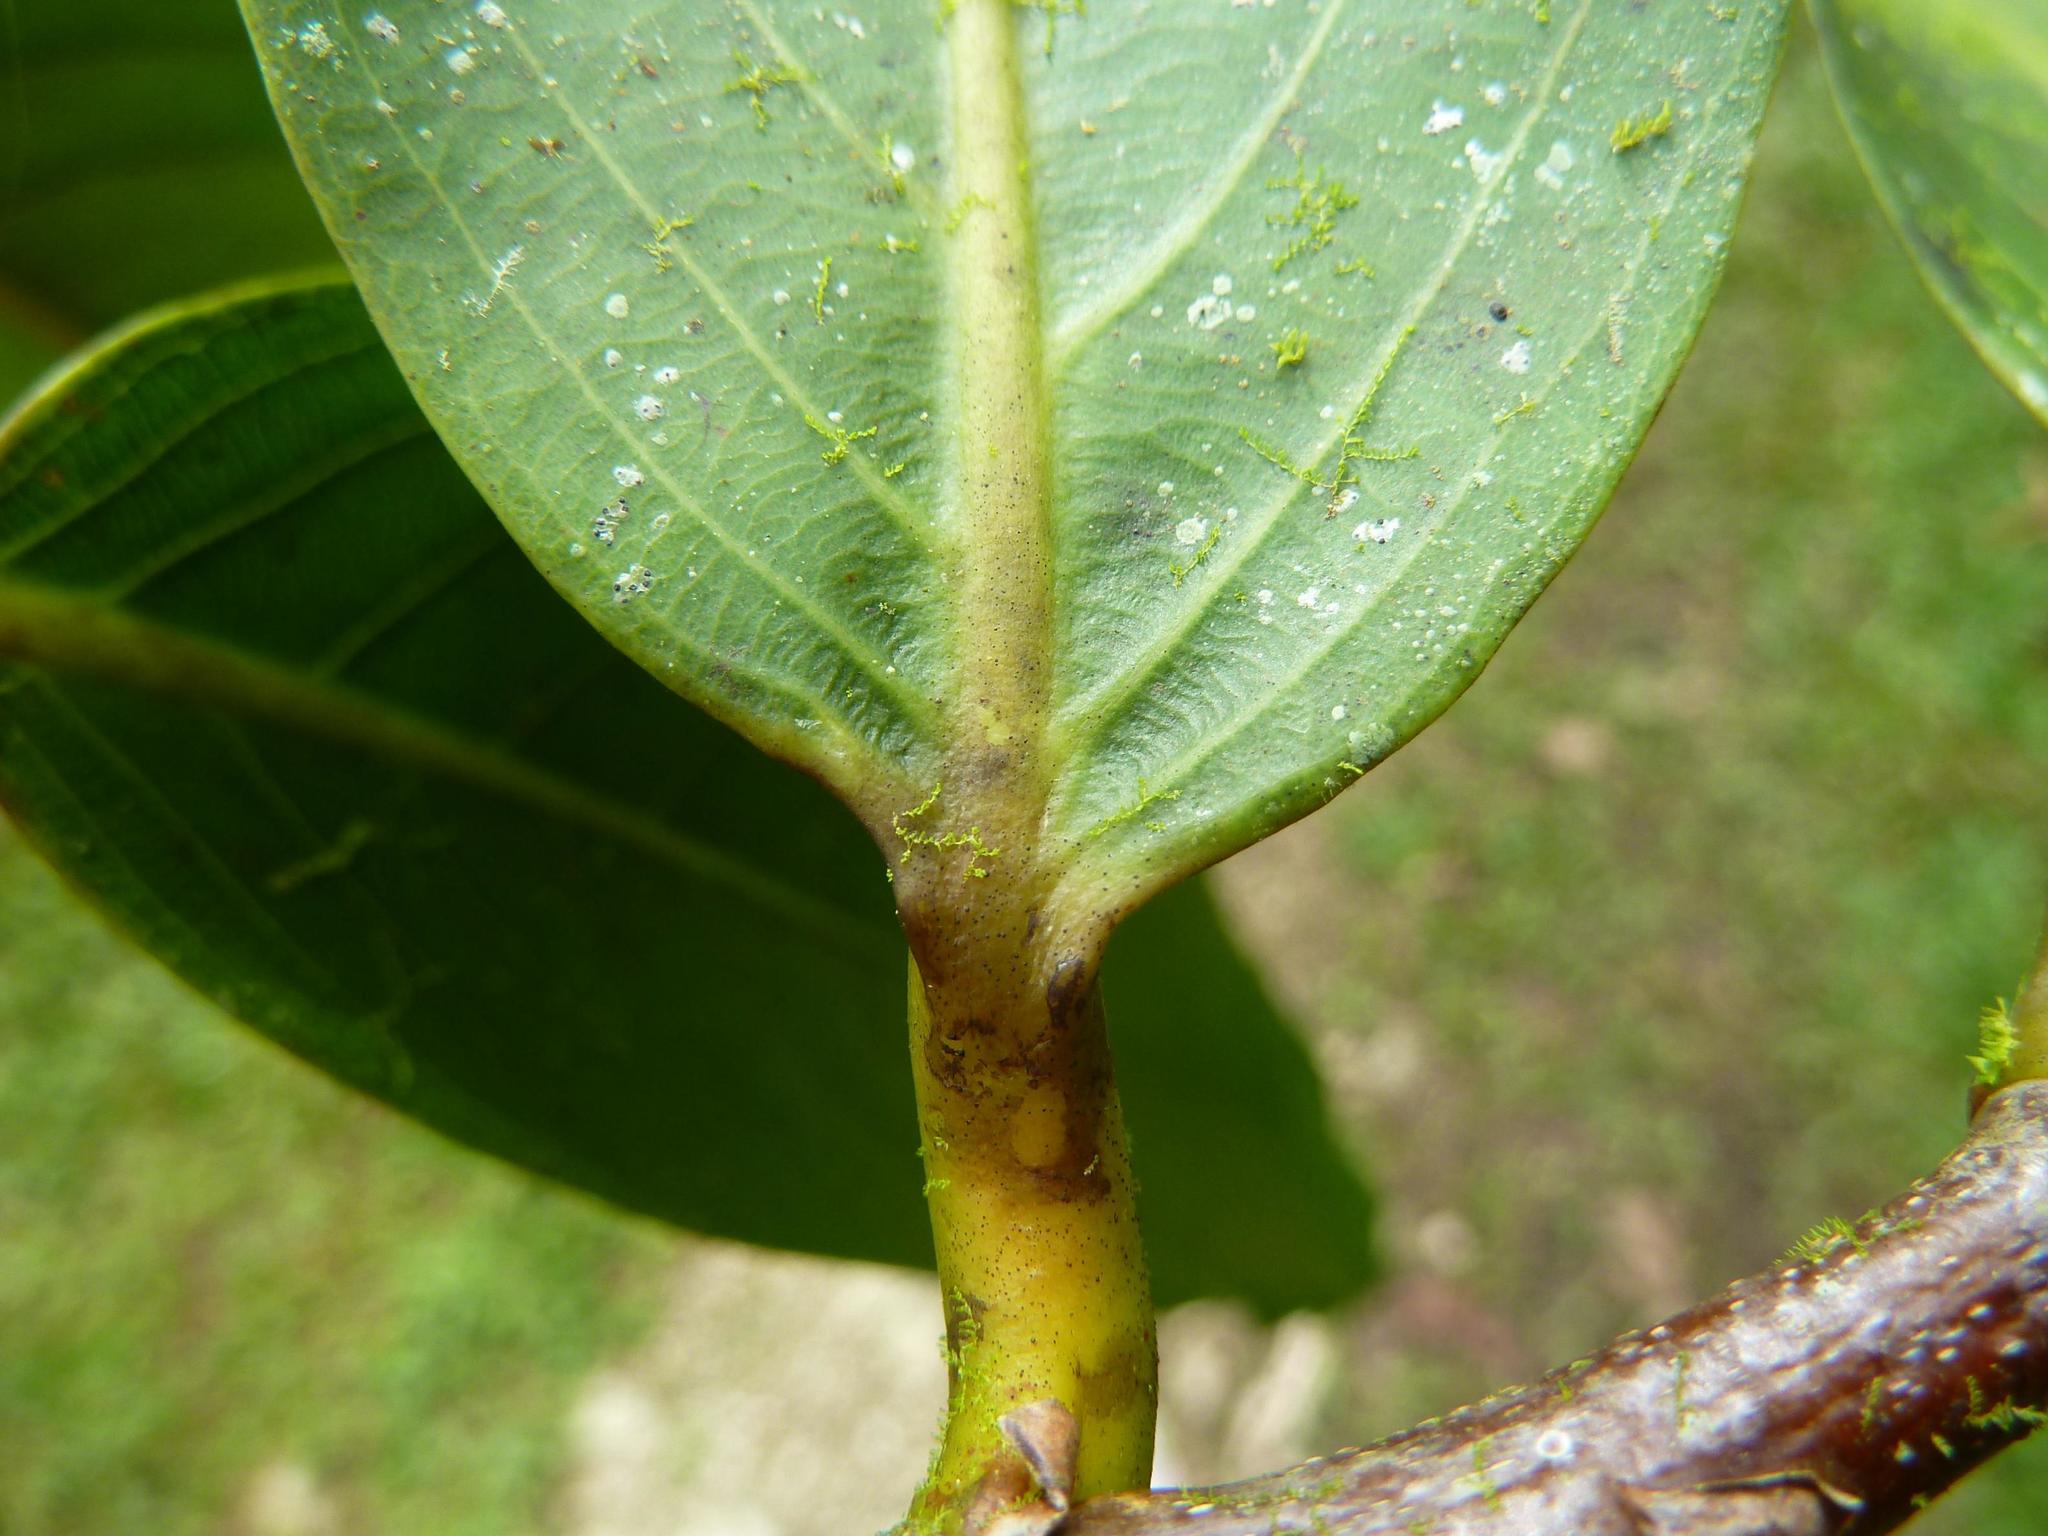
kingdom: Plantae
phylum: Tracheophyta
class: Magnoliopsida
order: Malpighiales
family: Chrysobalanaceae
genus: Moquilea
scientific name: Moquilea platypus
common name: Sansapote
